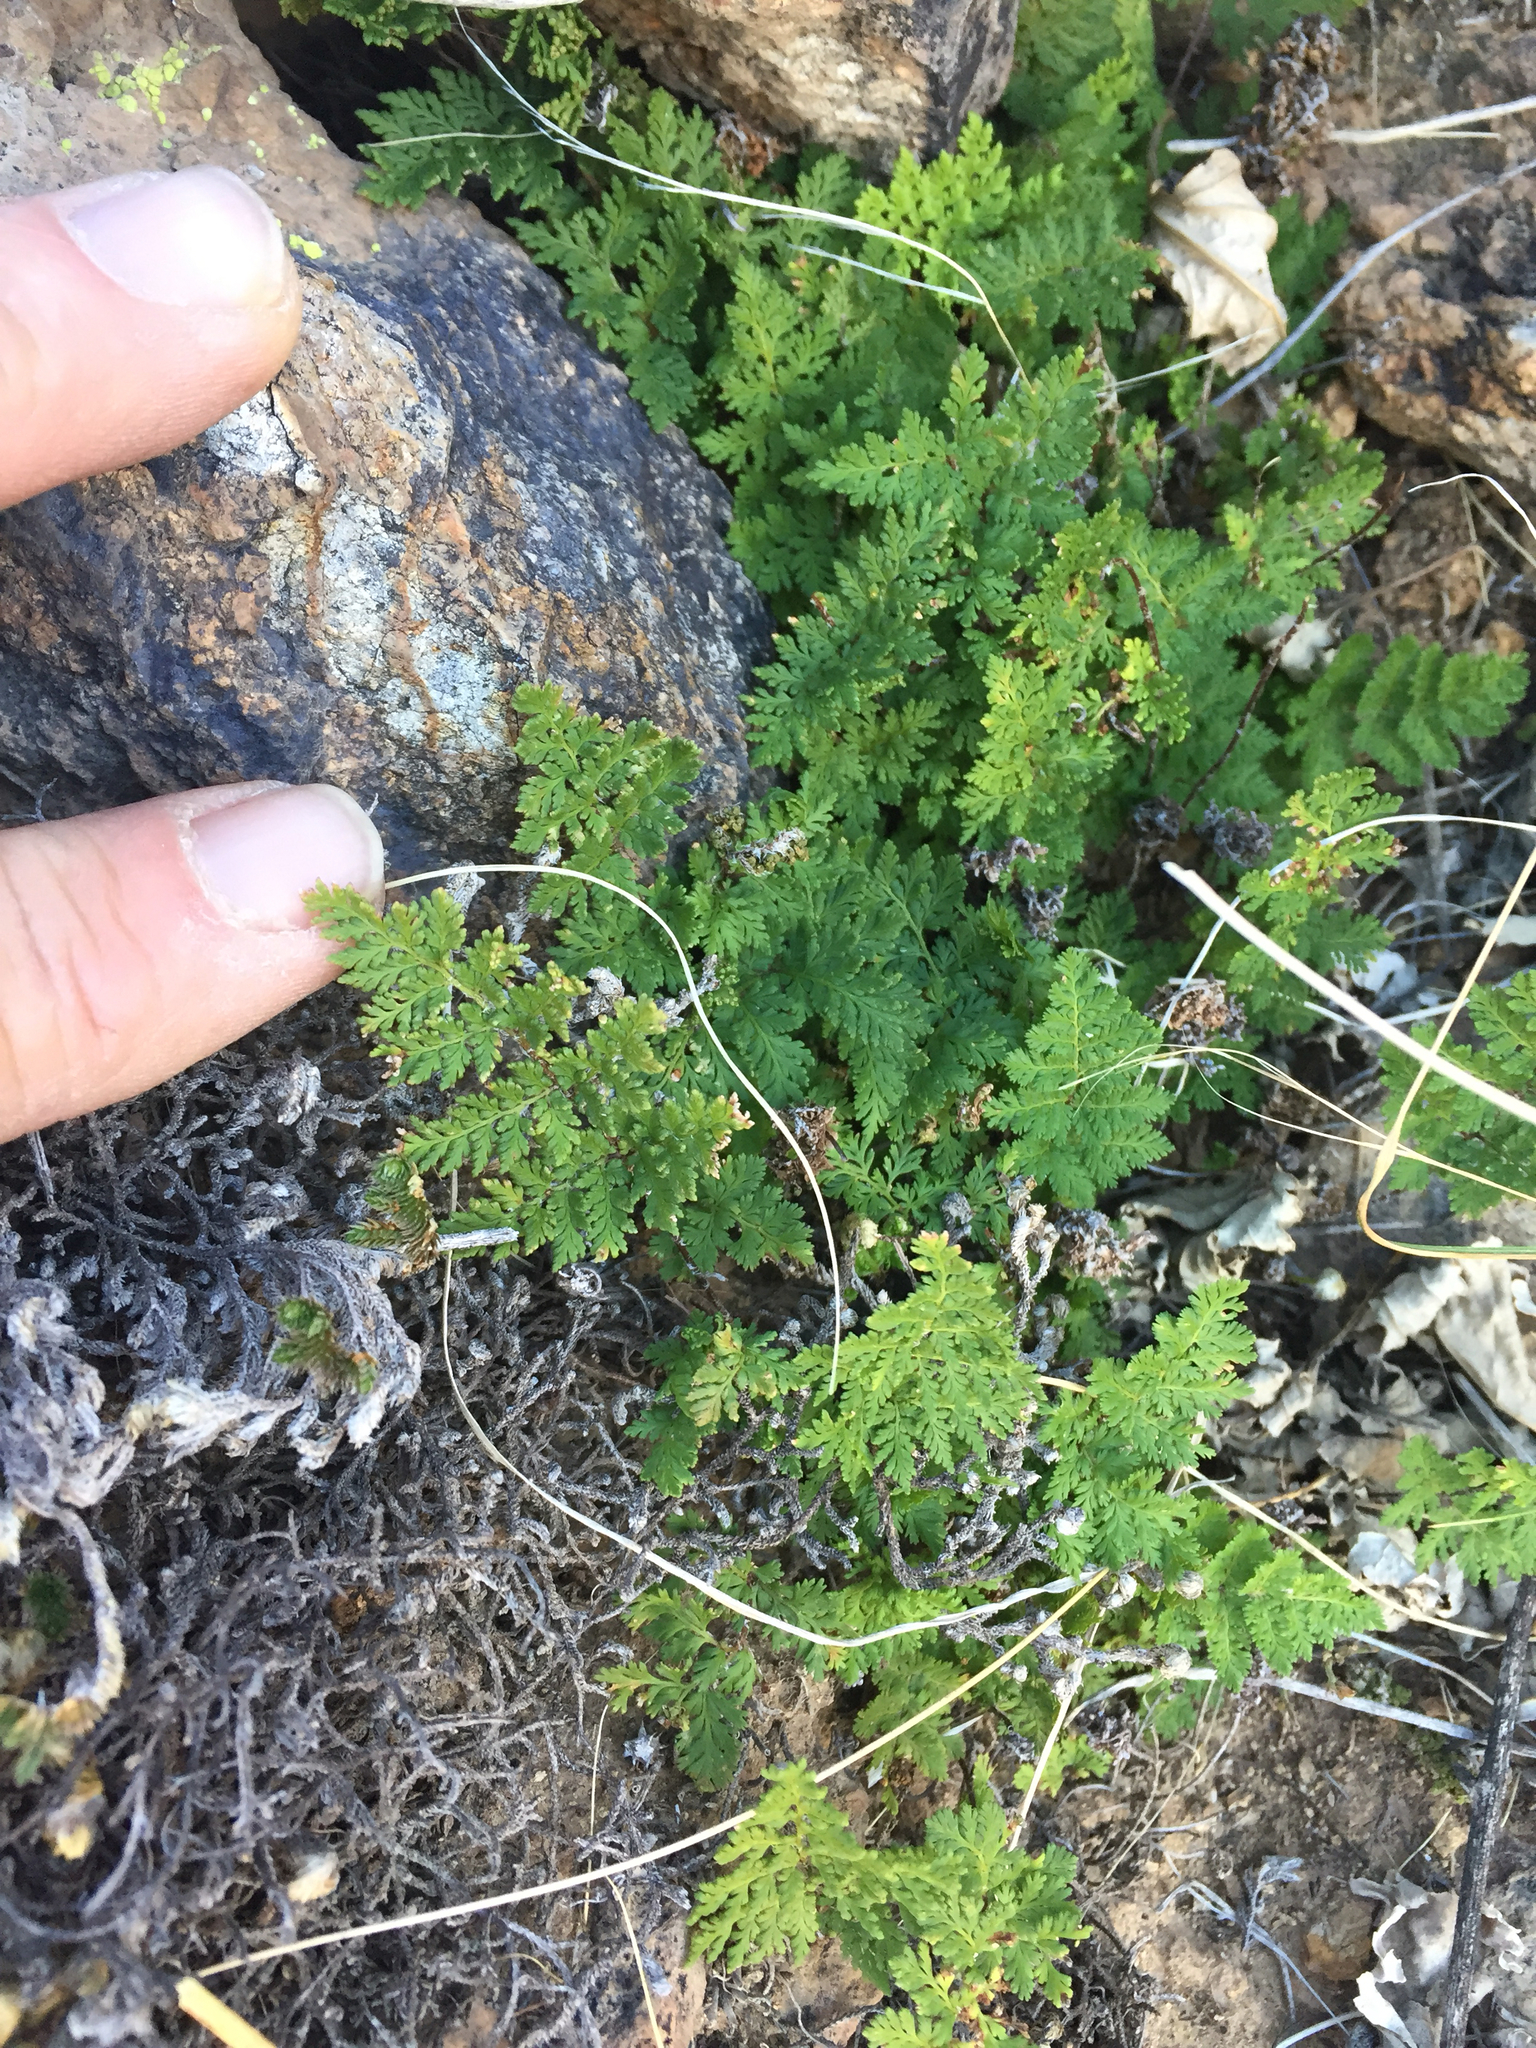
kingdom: Plantae
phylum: Tracheophyta
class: Polypodiopsida
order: Polypodiales
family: Pteridaceae
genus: Myriopteris
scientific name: Myriopteris pringlei
